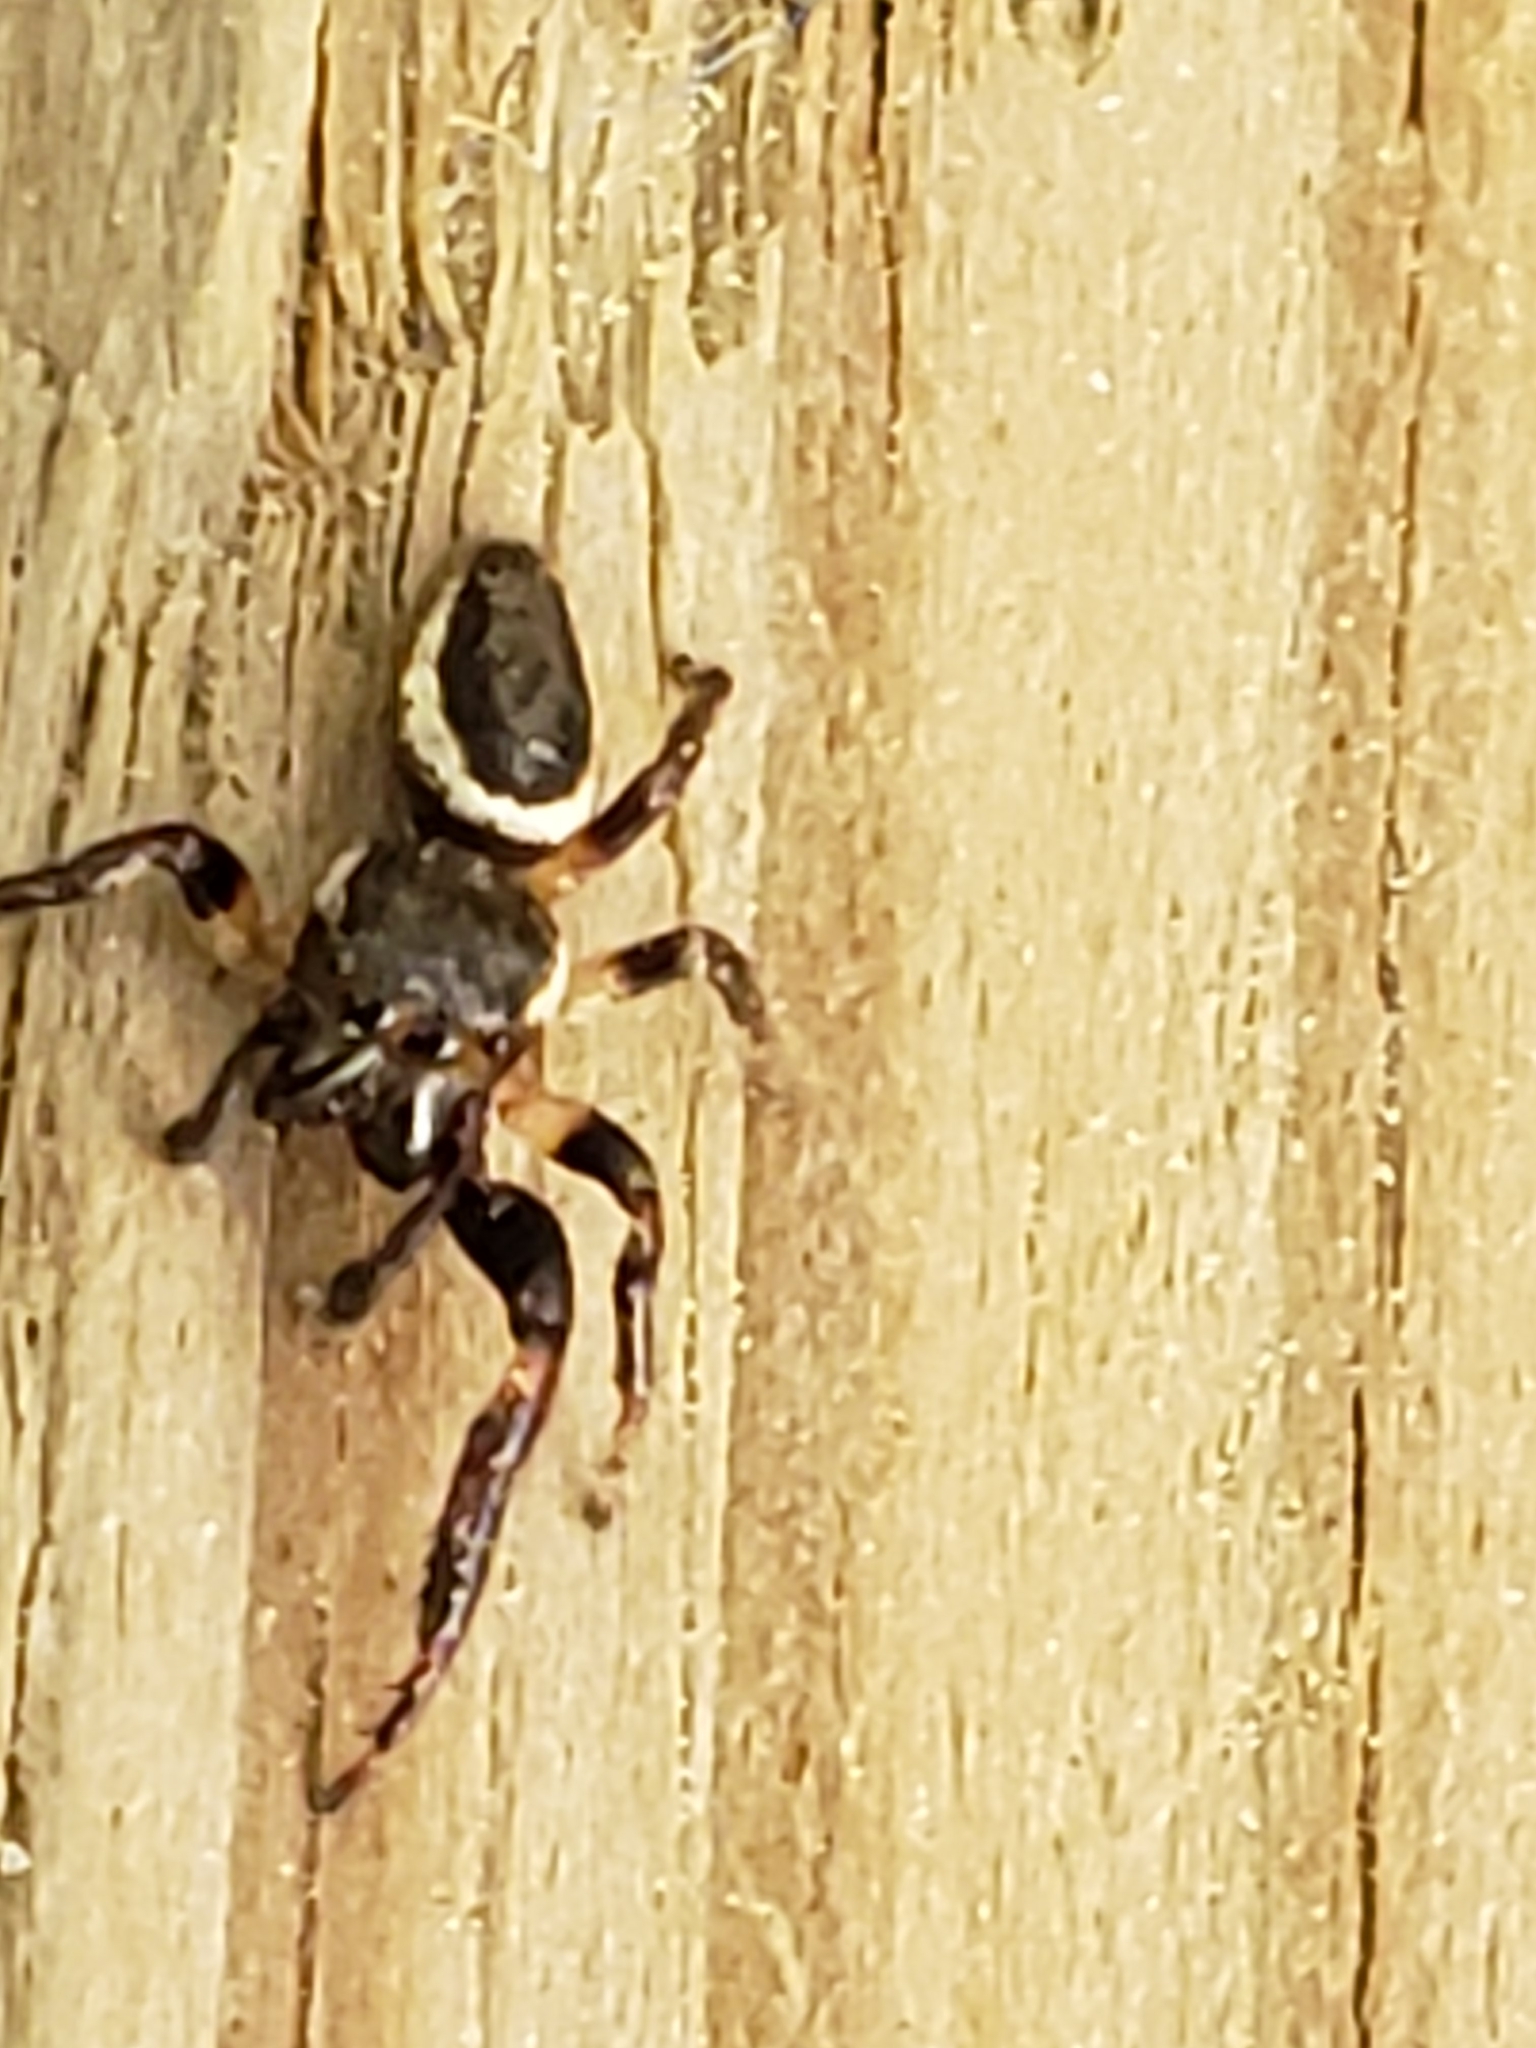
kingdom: Animalia
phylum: Arthropoda
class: Arachnida
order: Araneae
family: Salticidae
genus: Eris
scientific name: Eris militaris
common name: Bronze jumper
